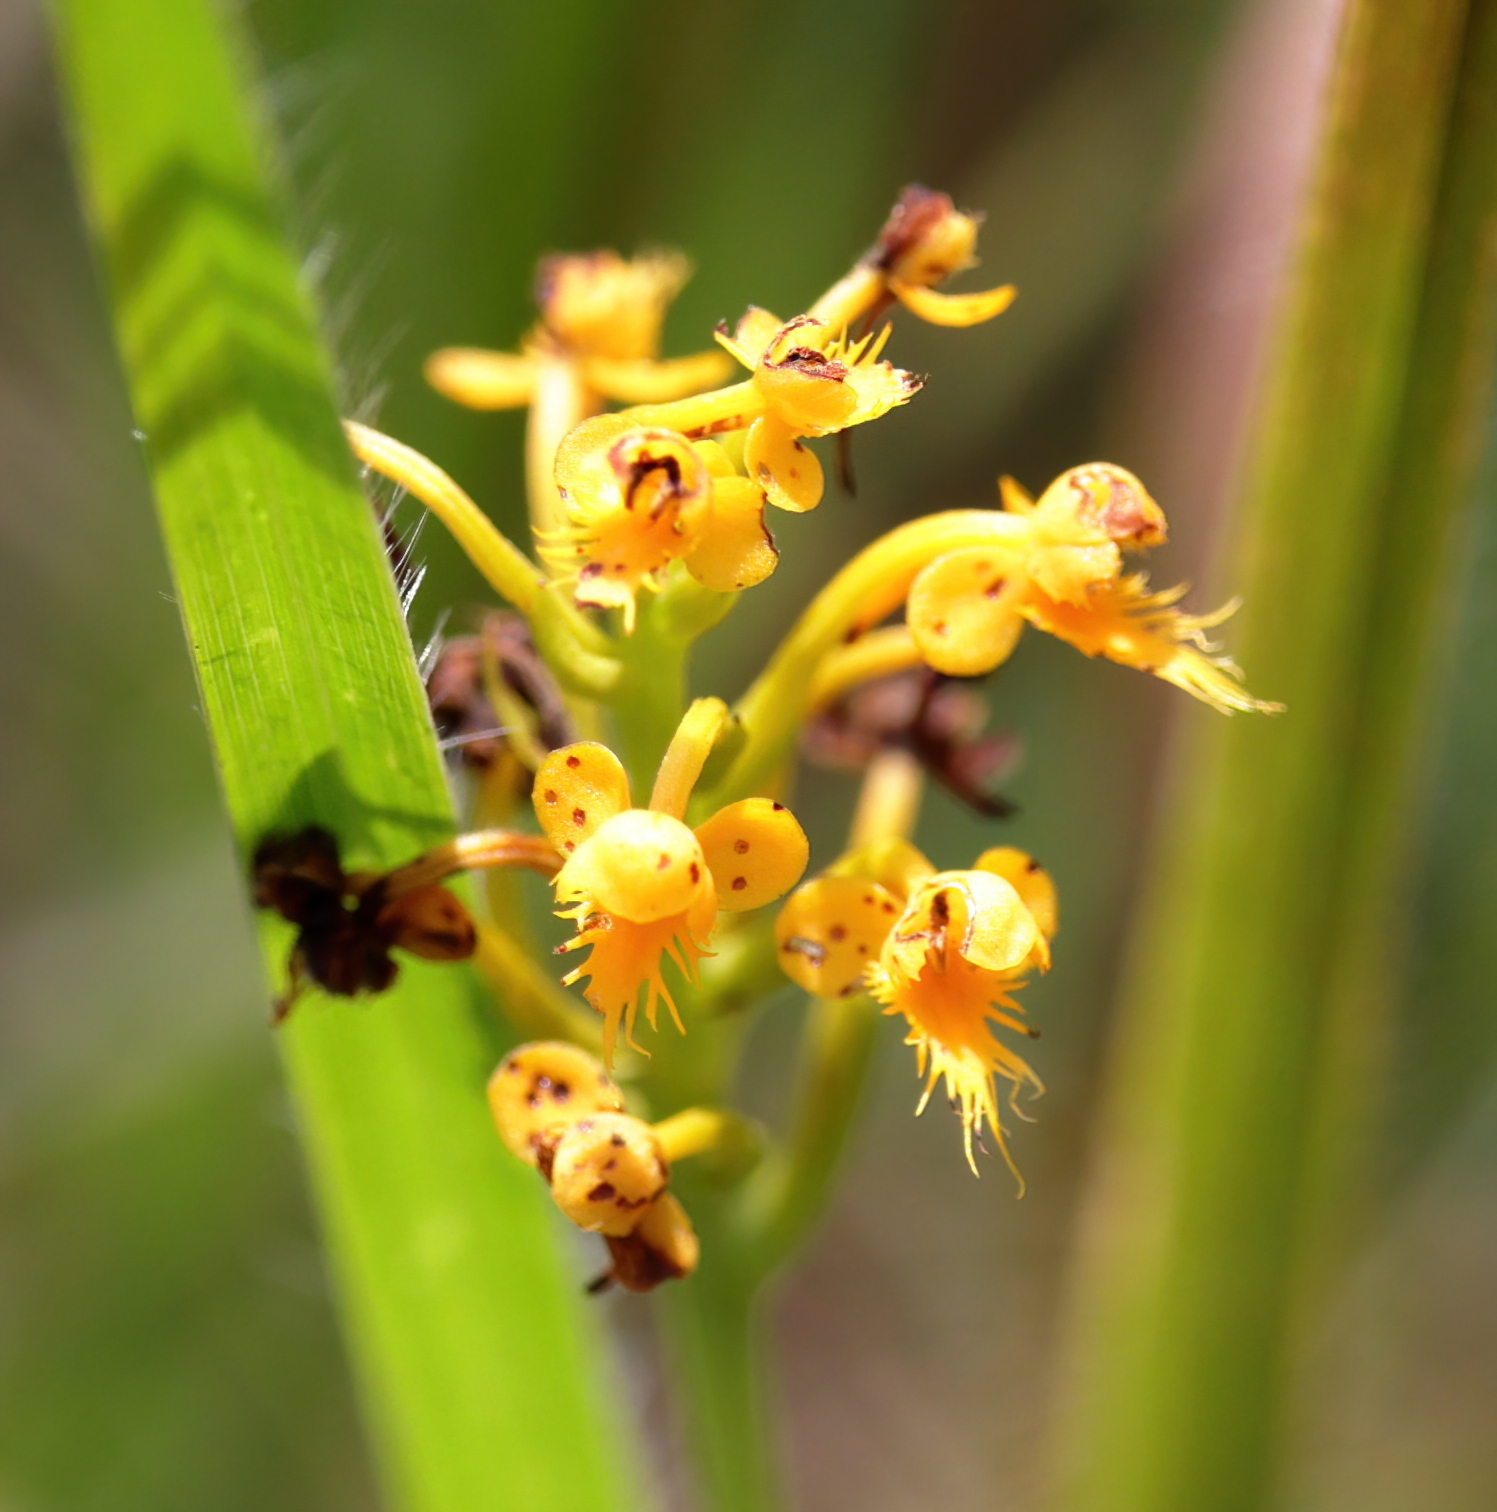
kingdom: Plantae
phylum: Tracheophyta
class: Liliopsida
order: Asparagales
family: Orchidaceae
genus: Platanthera
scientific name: Platanthera cristata
